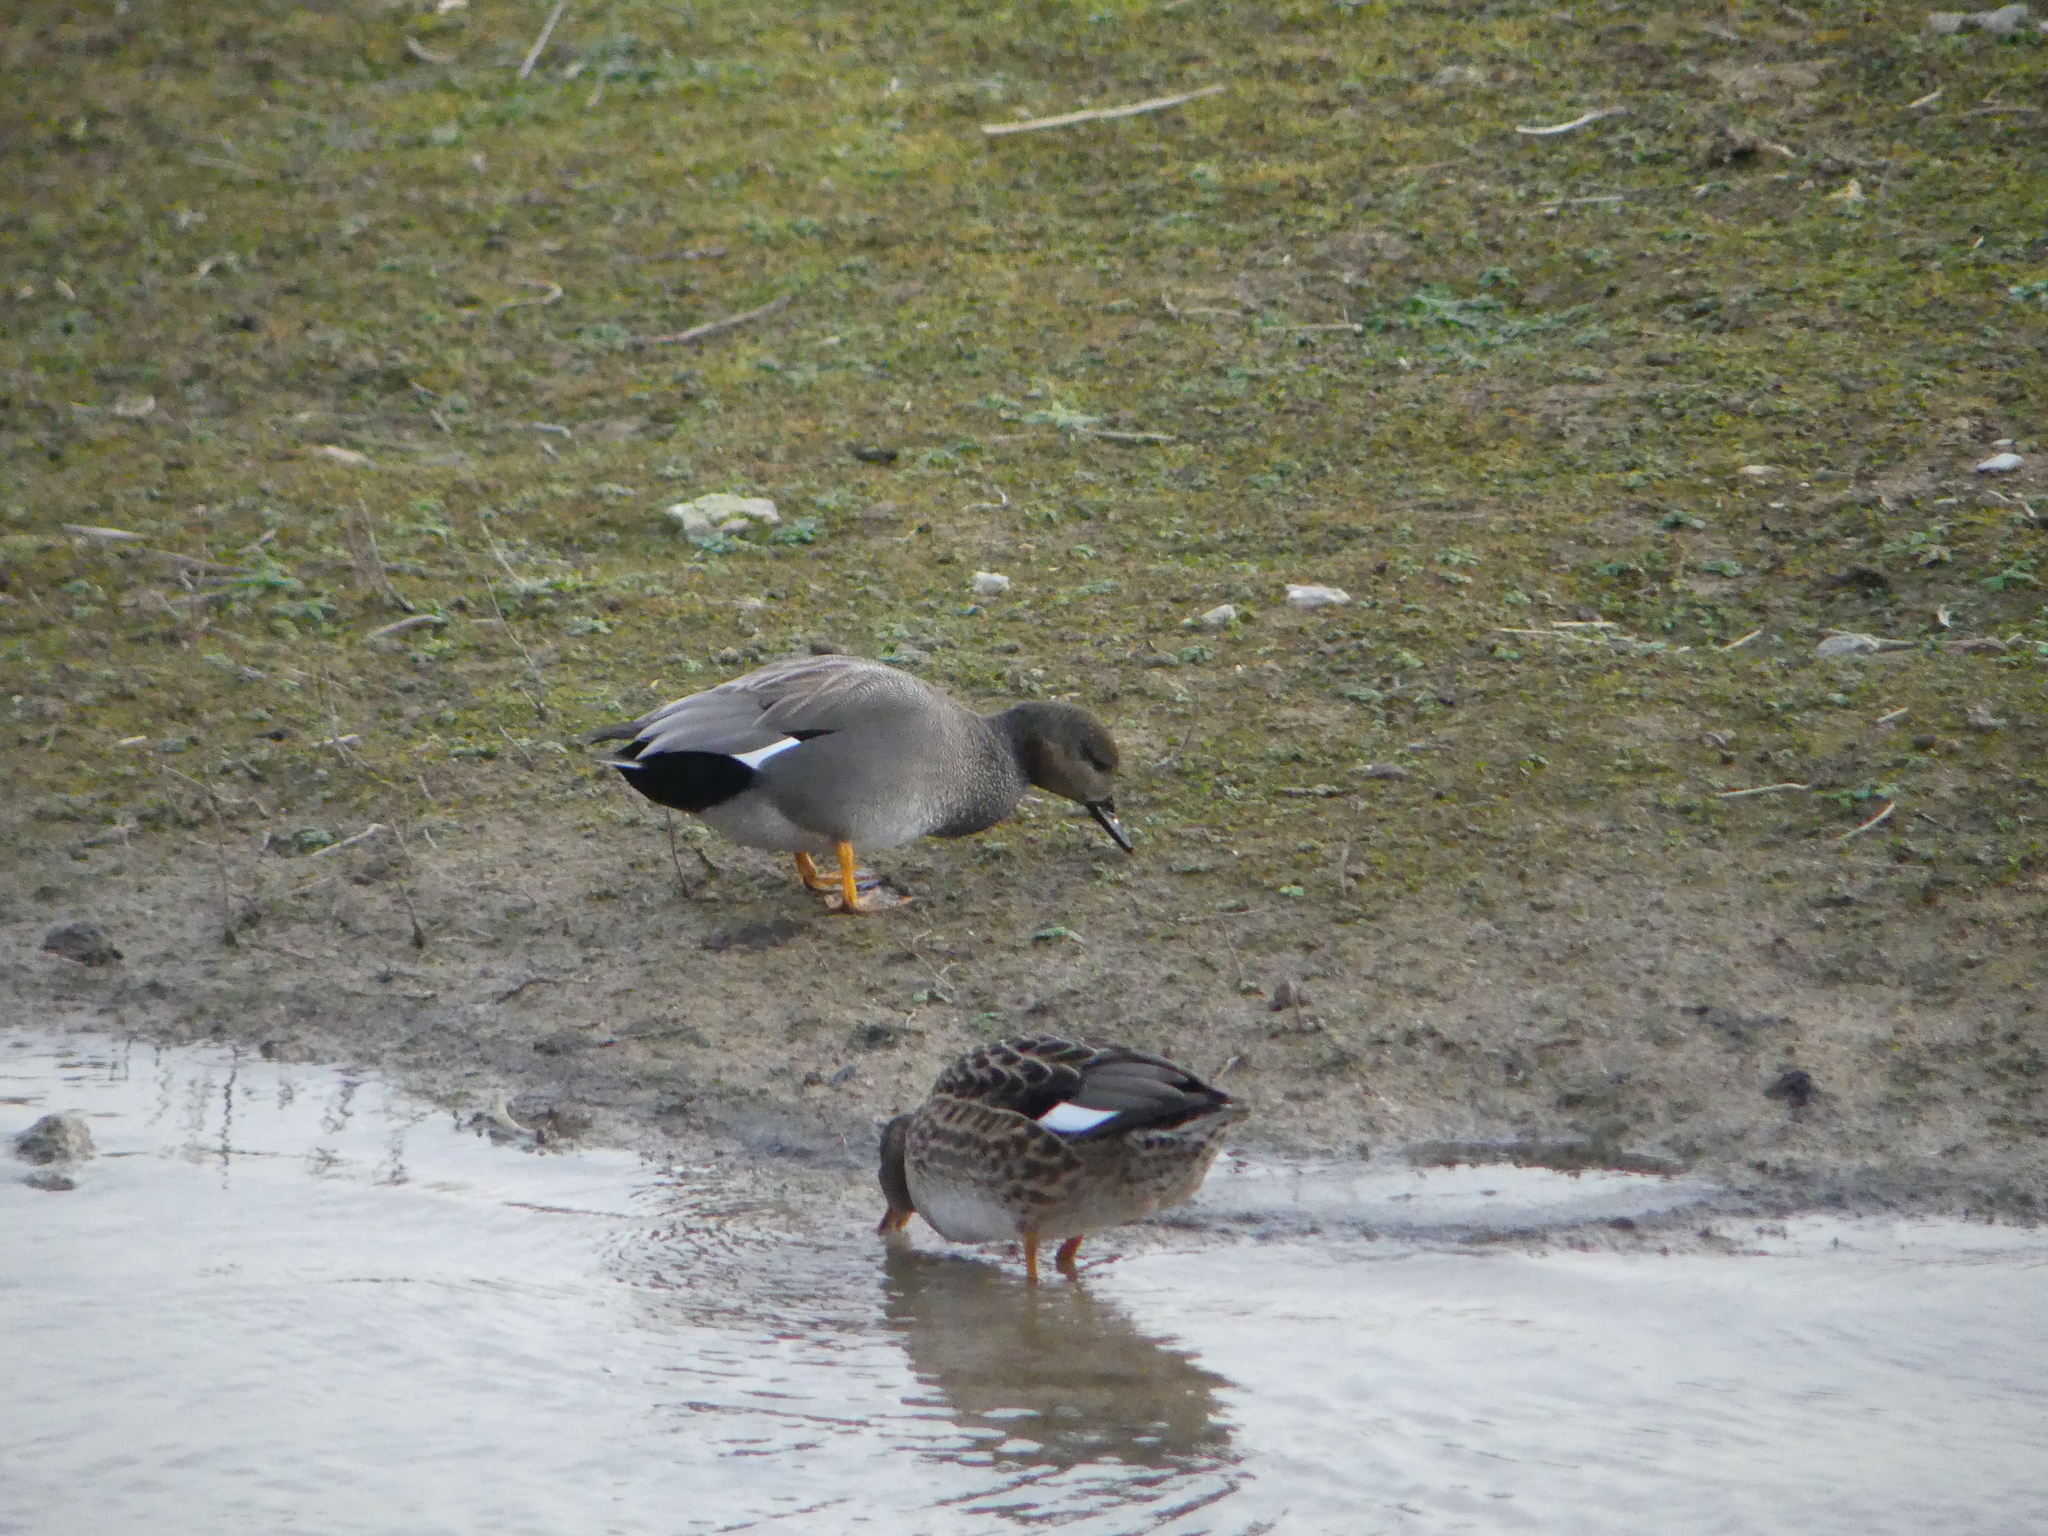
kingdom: Animalia
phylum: Chordata
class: Aves
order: Anseriformes
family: Anatidae
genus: Mareca
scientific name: Mareca strepera
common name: Gadwall
